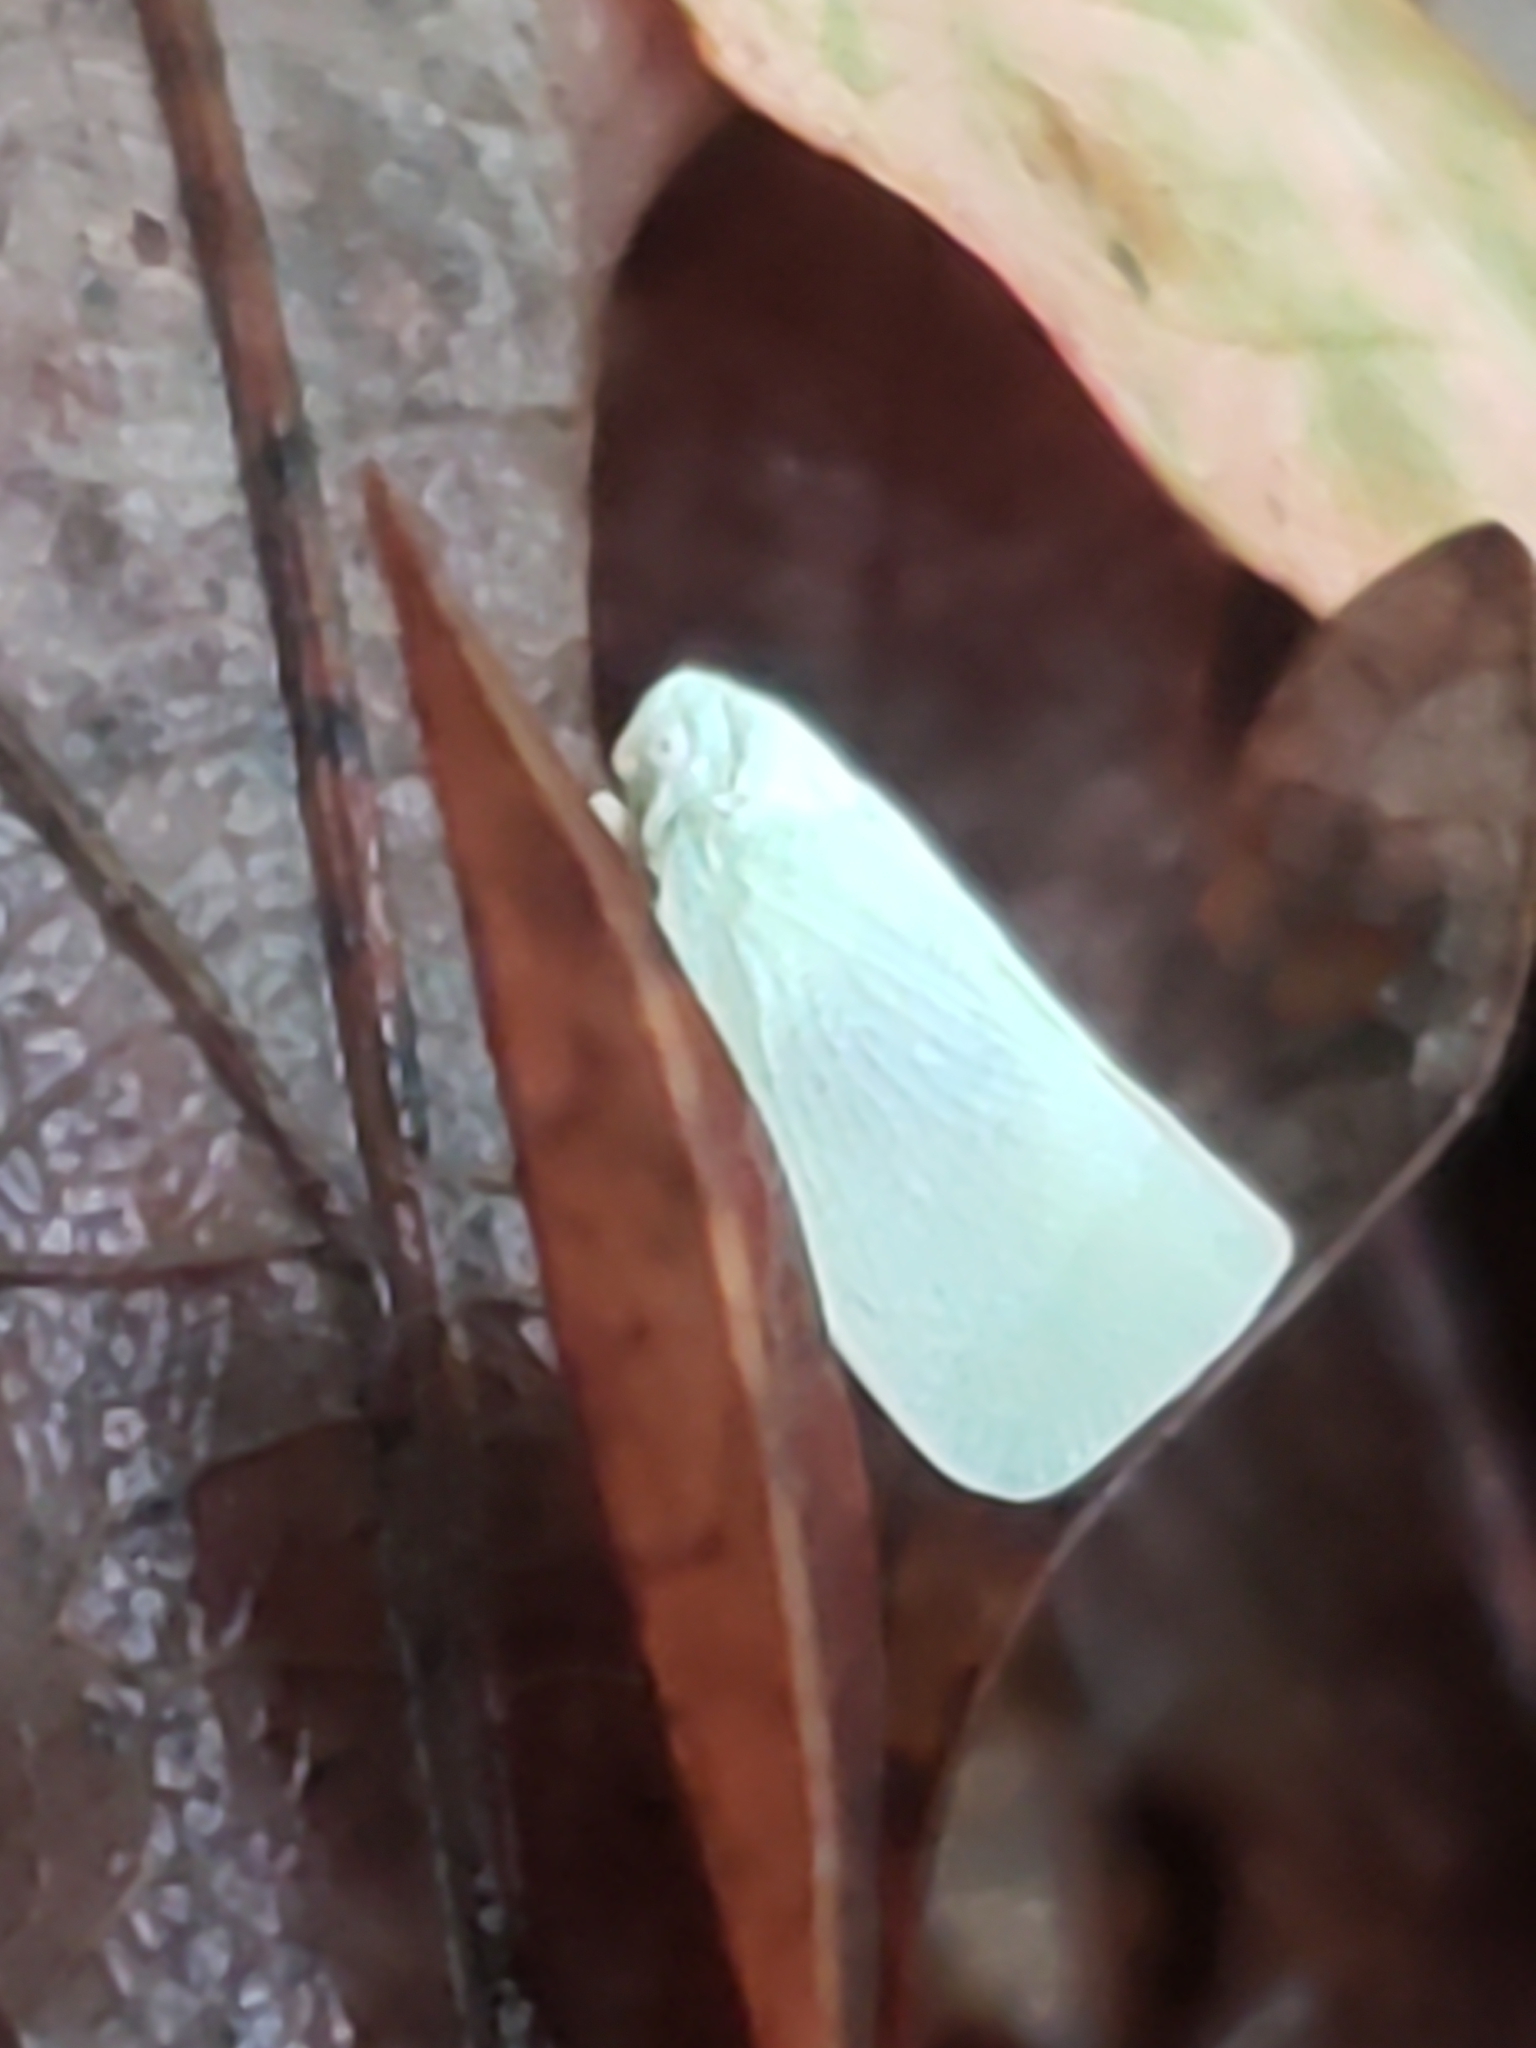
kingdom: Animalia
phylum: Arthropoda
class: Insecta
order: Hemiptera
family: Flatidae
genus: Flatormenis
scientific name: Flatormenis proxima
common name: Northern flatid planthopper
